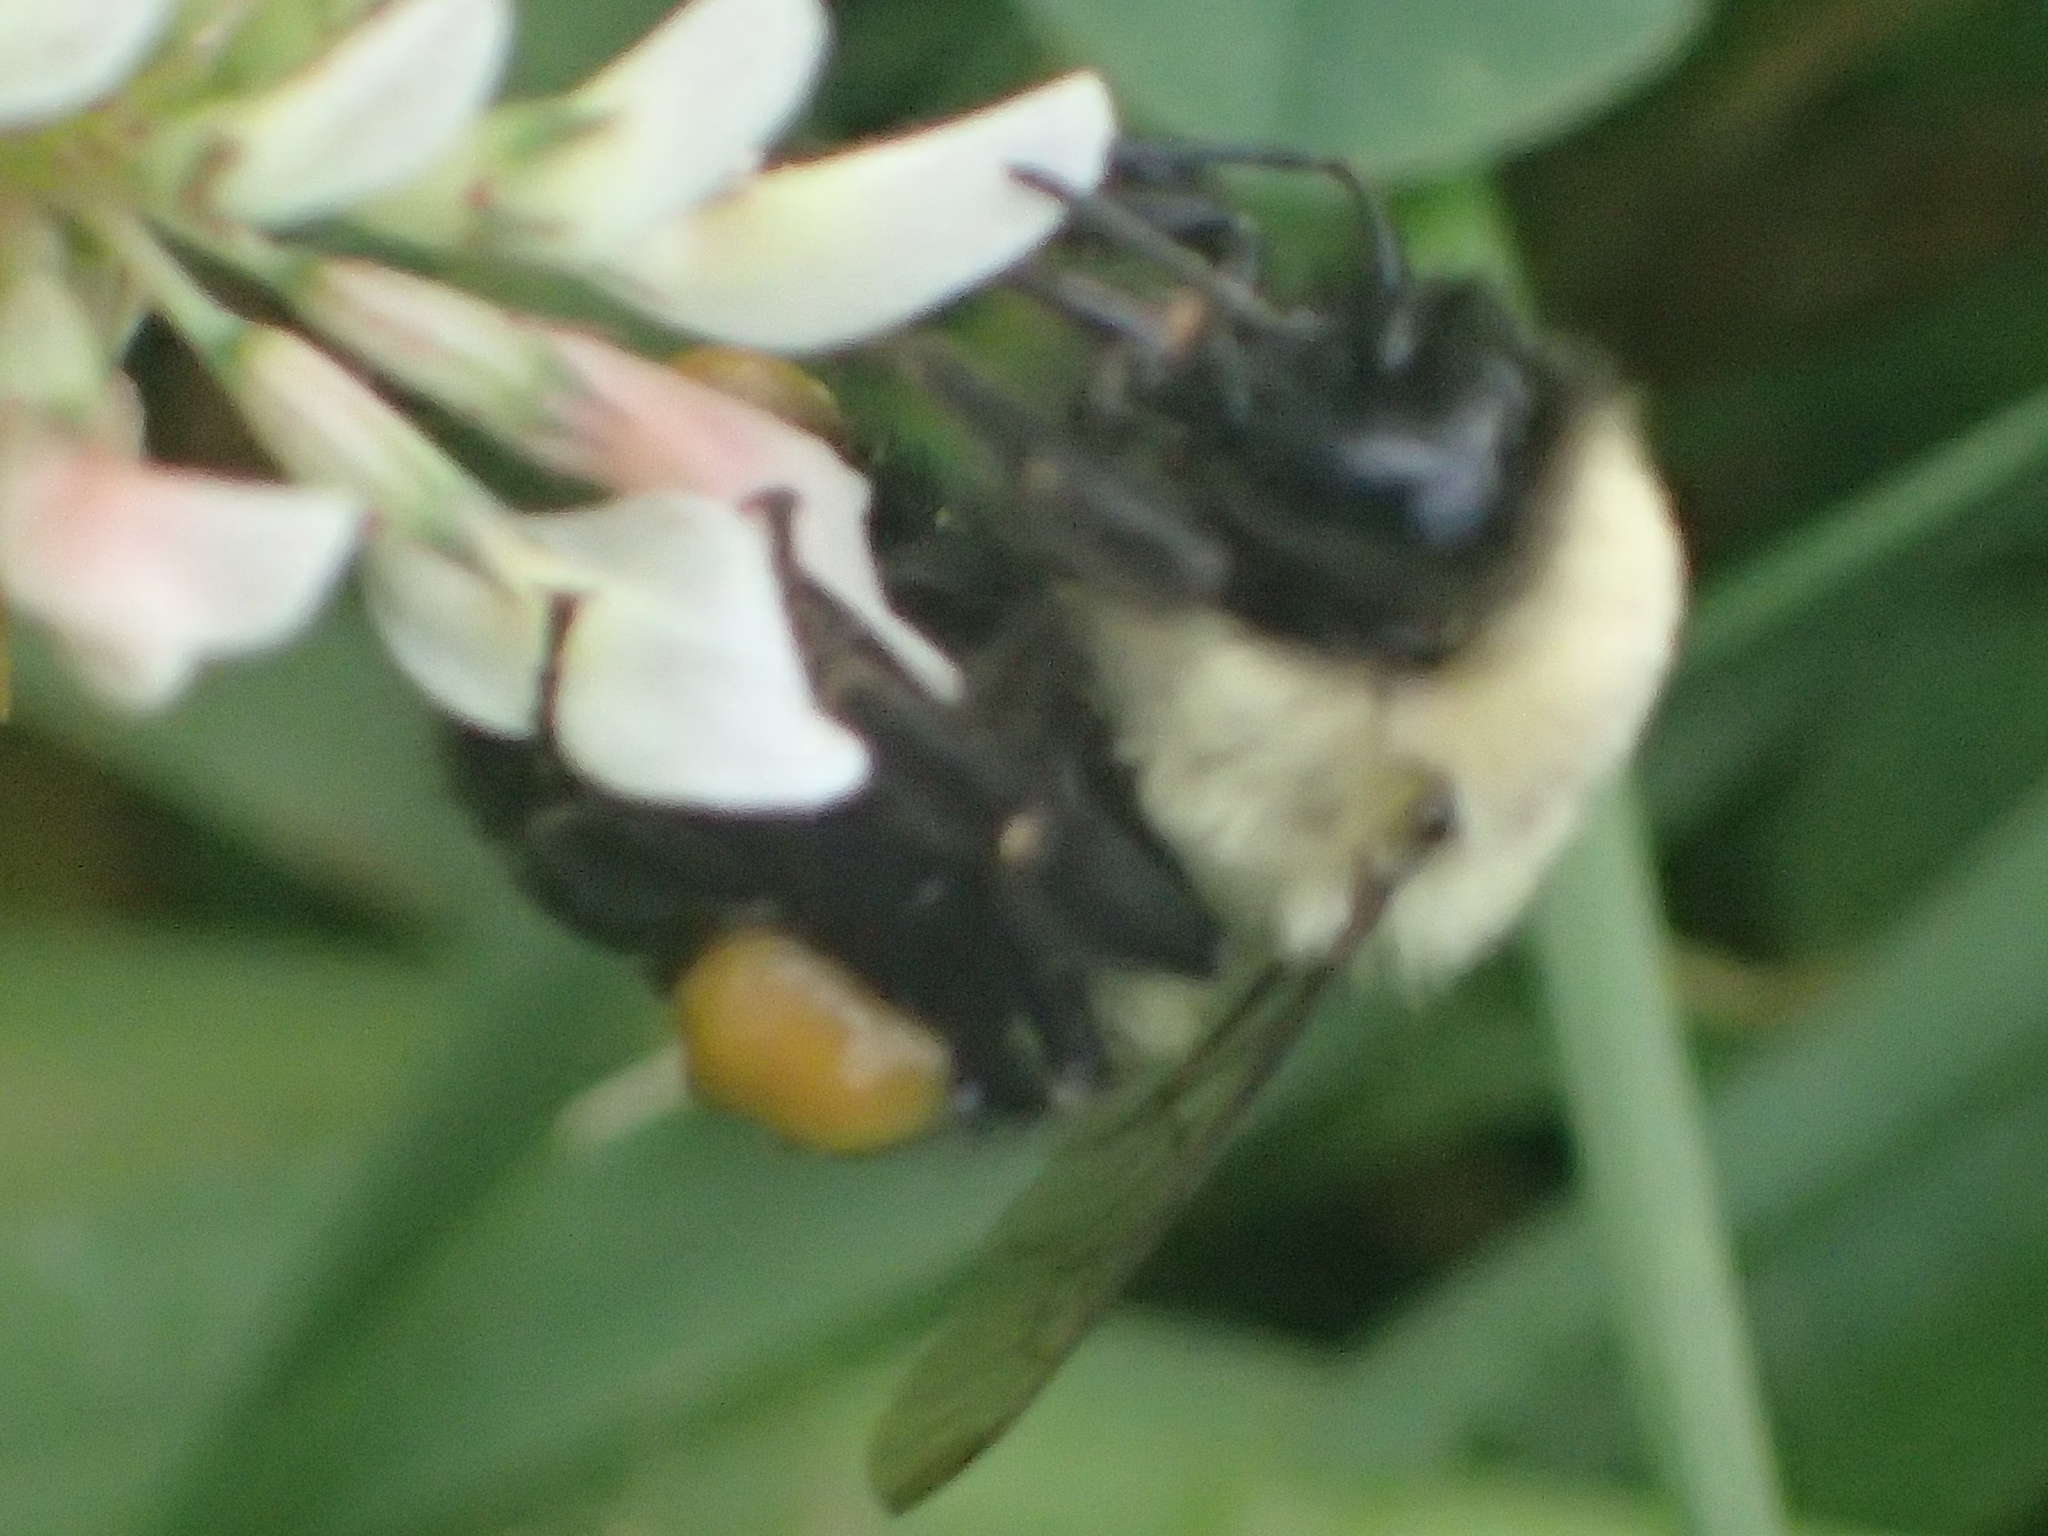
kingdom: Animalia
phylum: Arthropoda
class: Insecta
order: Hymenoptera
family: Apidae
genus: Bombus
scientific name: Bombus impatiens
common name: Common eastern bumble bee
